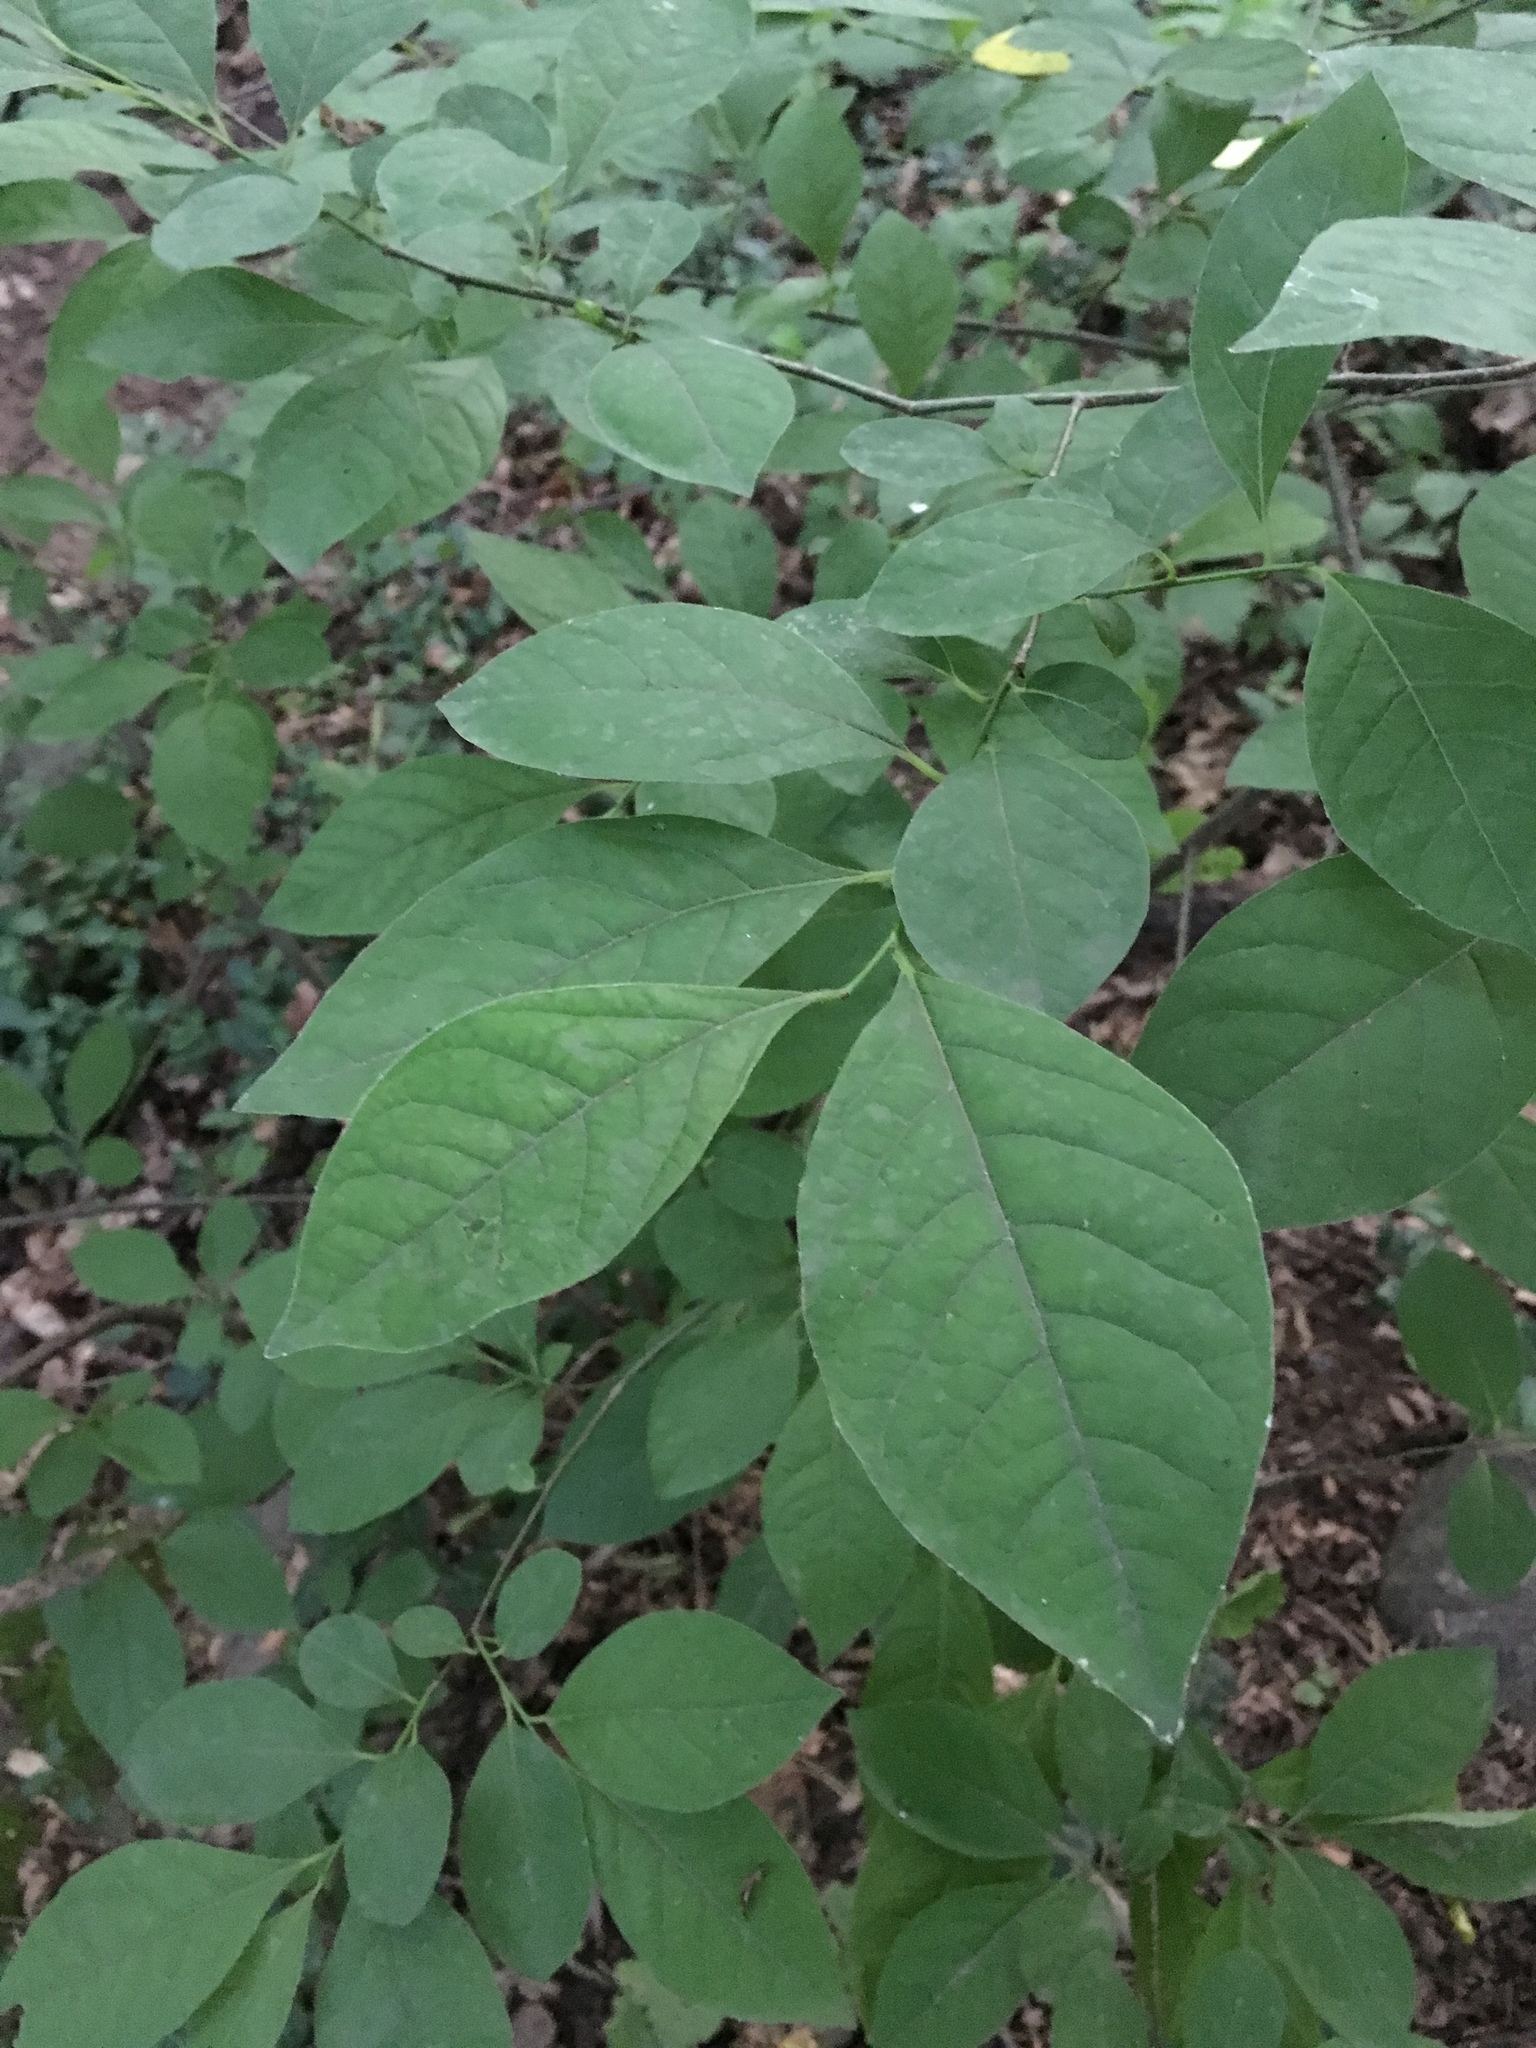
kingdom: Plantae
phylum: Tracheophyta
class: Magnoliopsida
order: Laurales
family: Lauraceae
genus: Lindera
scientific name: Lindera benzoin
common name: Spicebush
